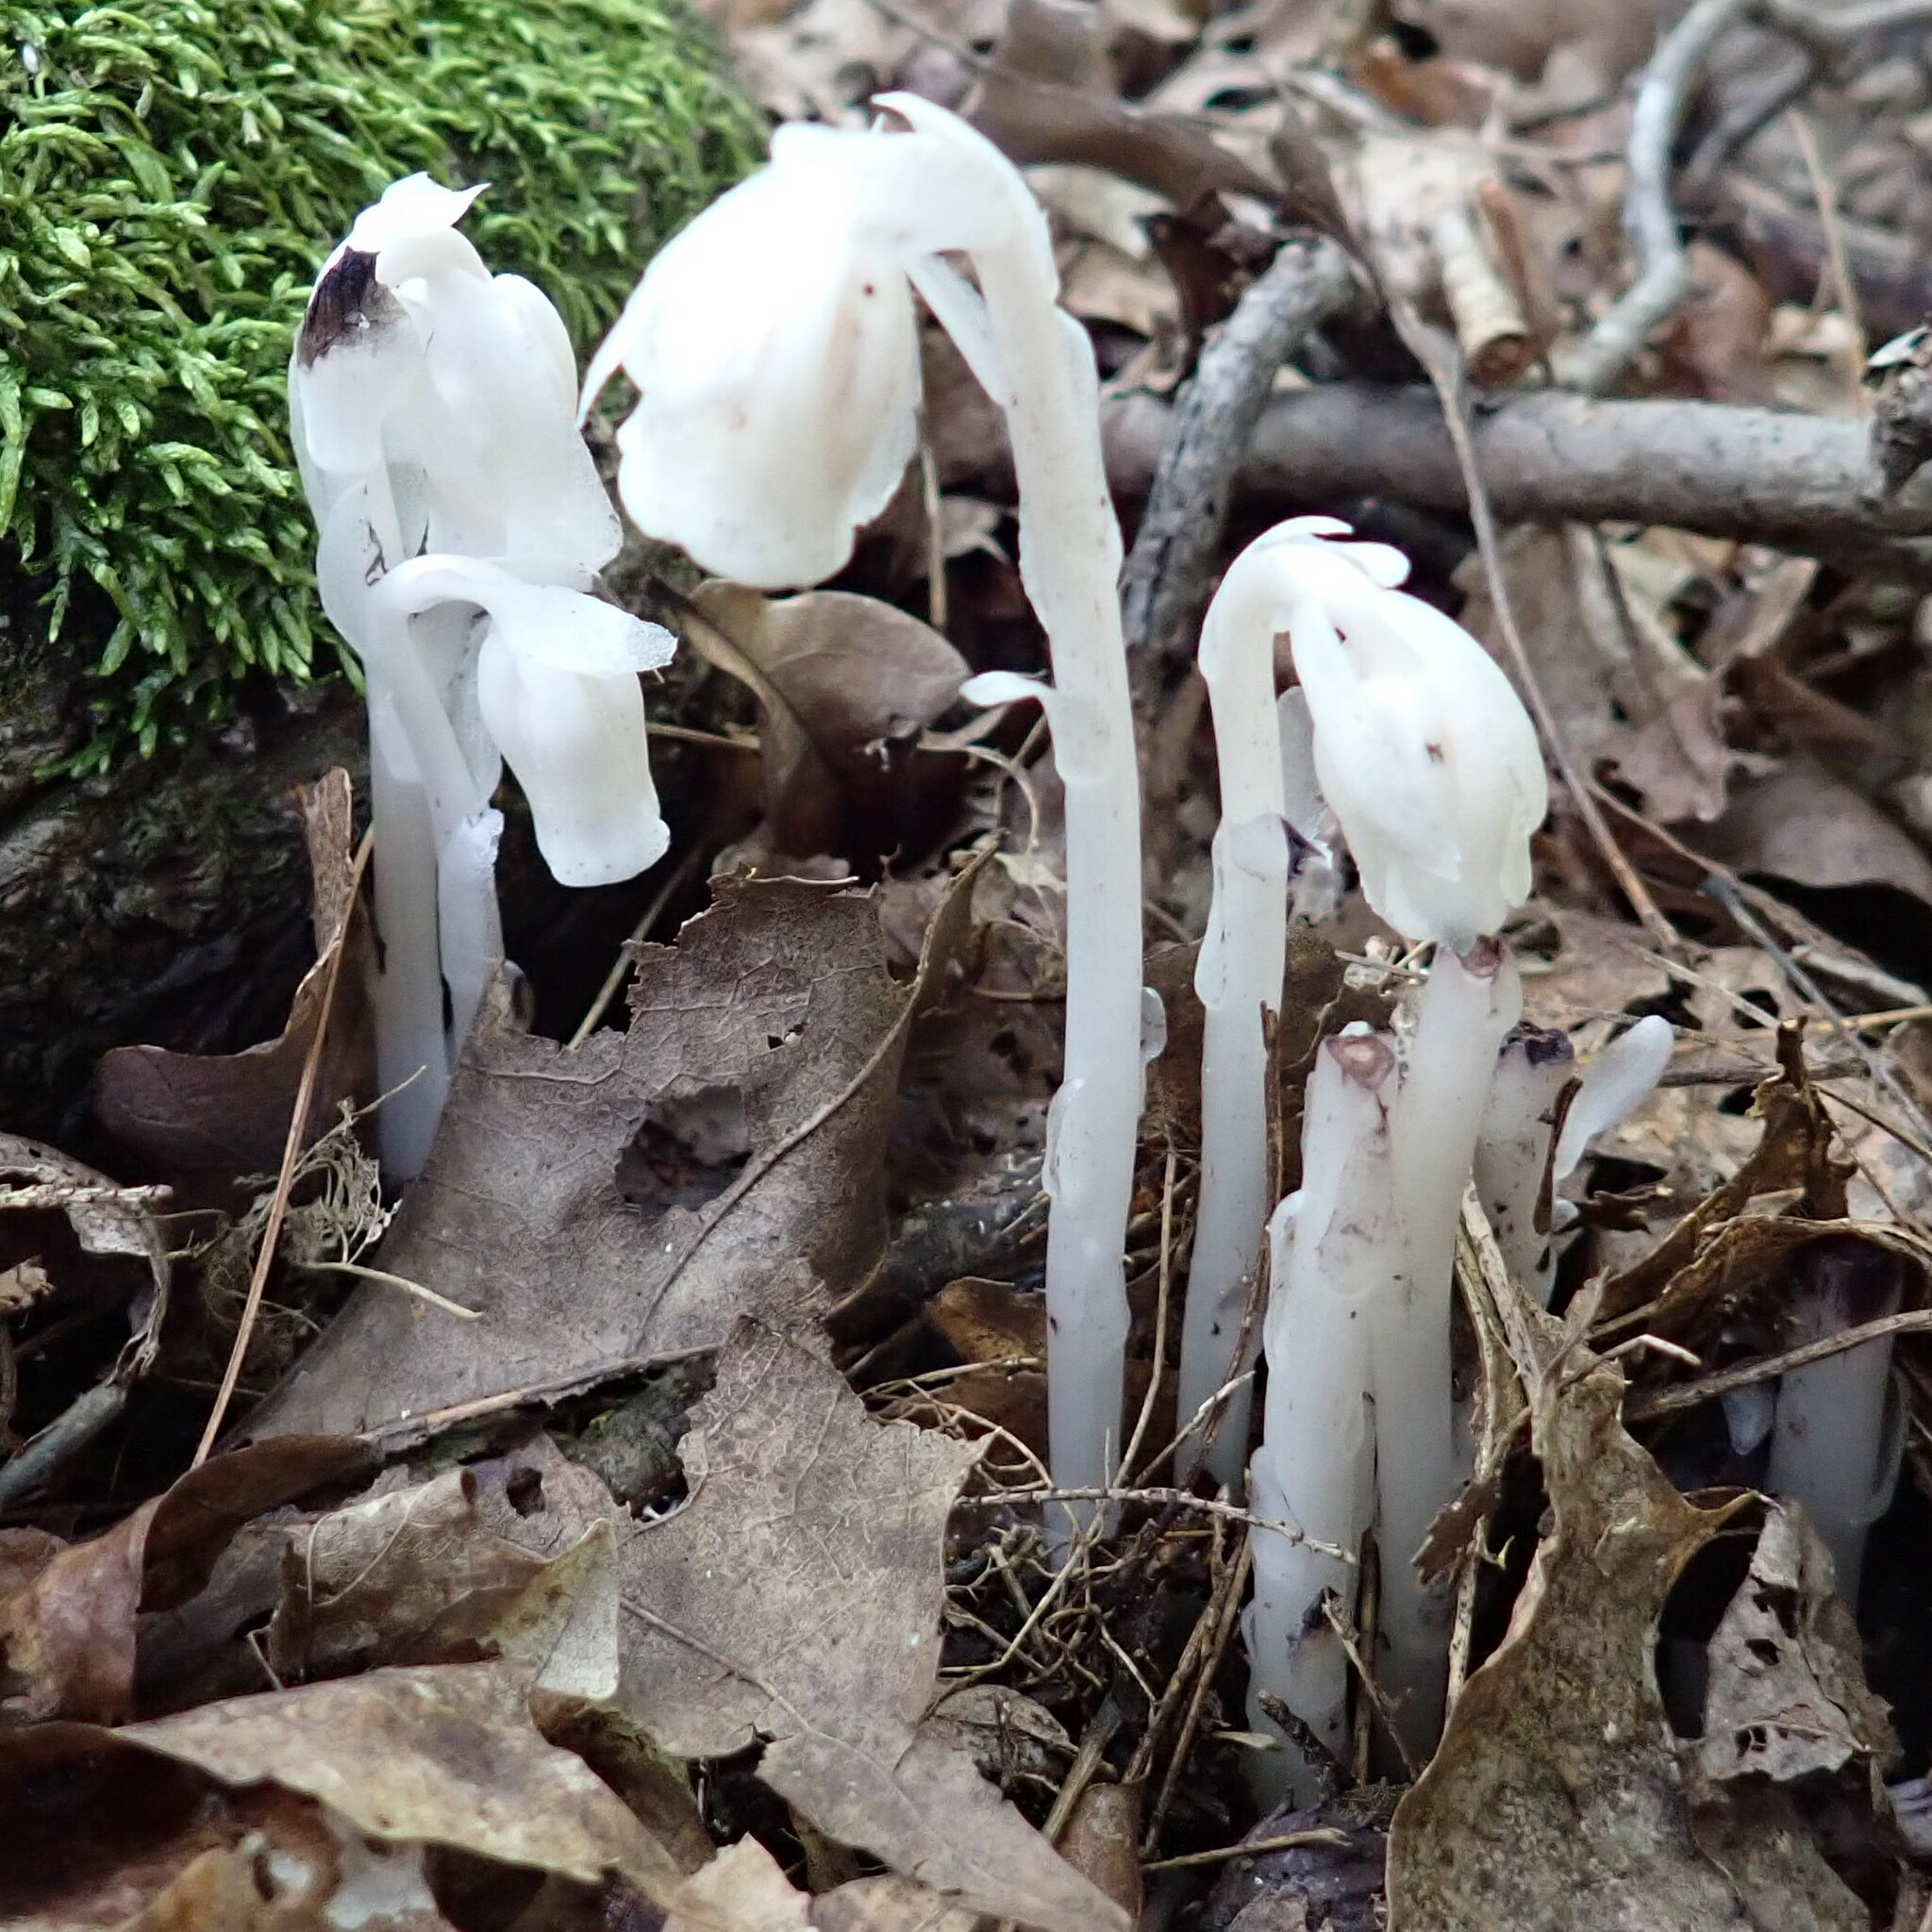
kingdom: Plantae
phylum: Tracheophyta
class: Magnoliopsida
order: Ericales
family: Ericaceae
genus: Monotropa
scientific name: Monotropa uniflora
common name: Convulsion root
